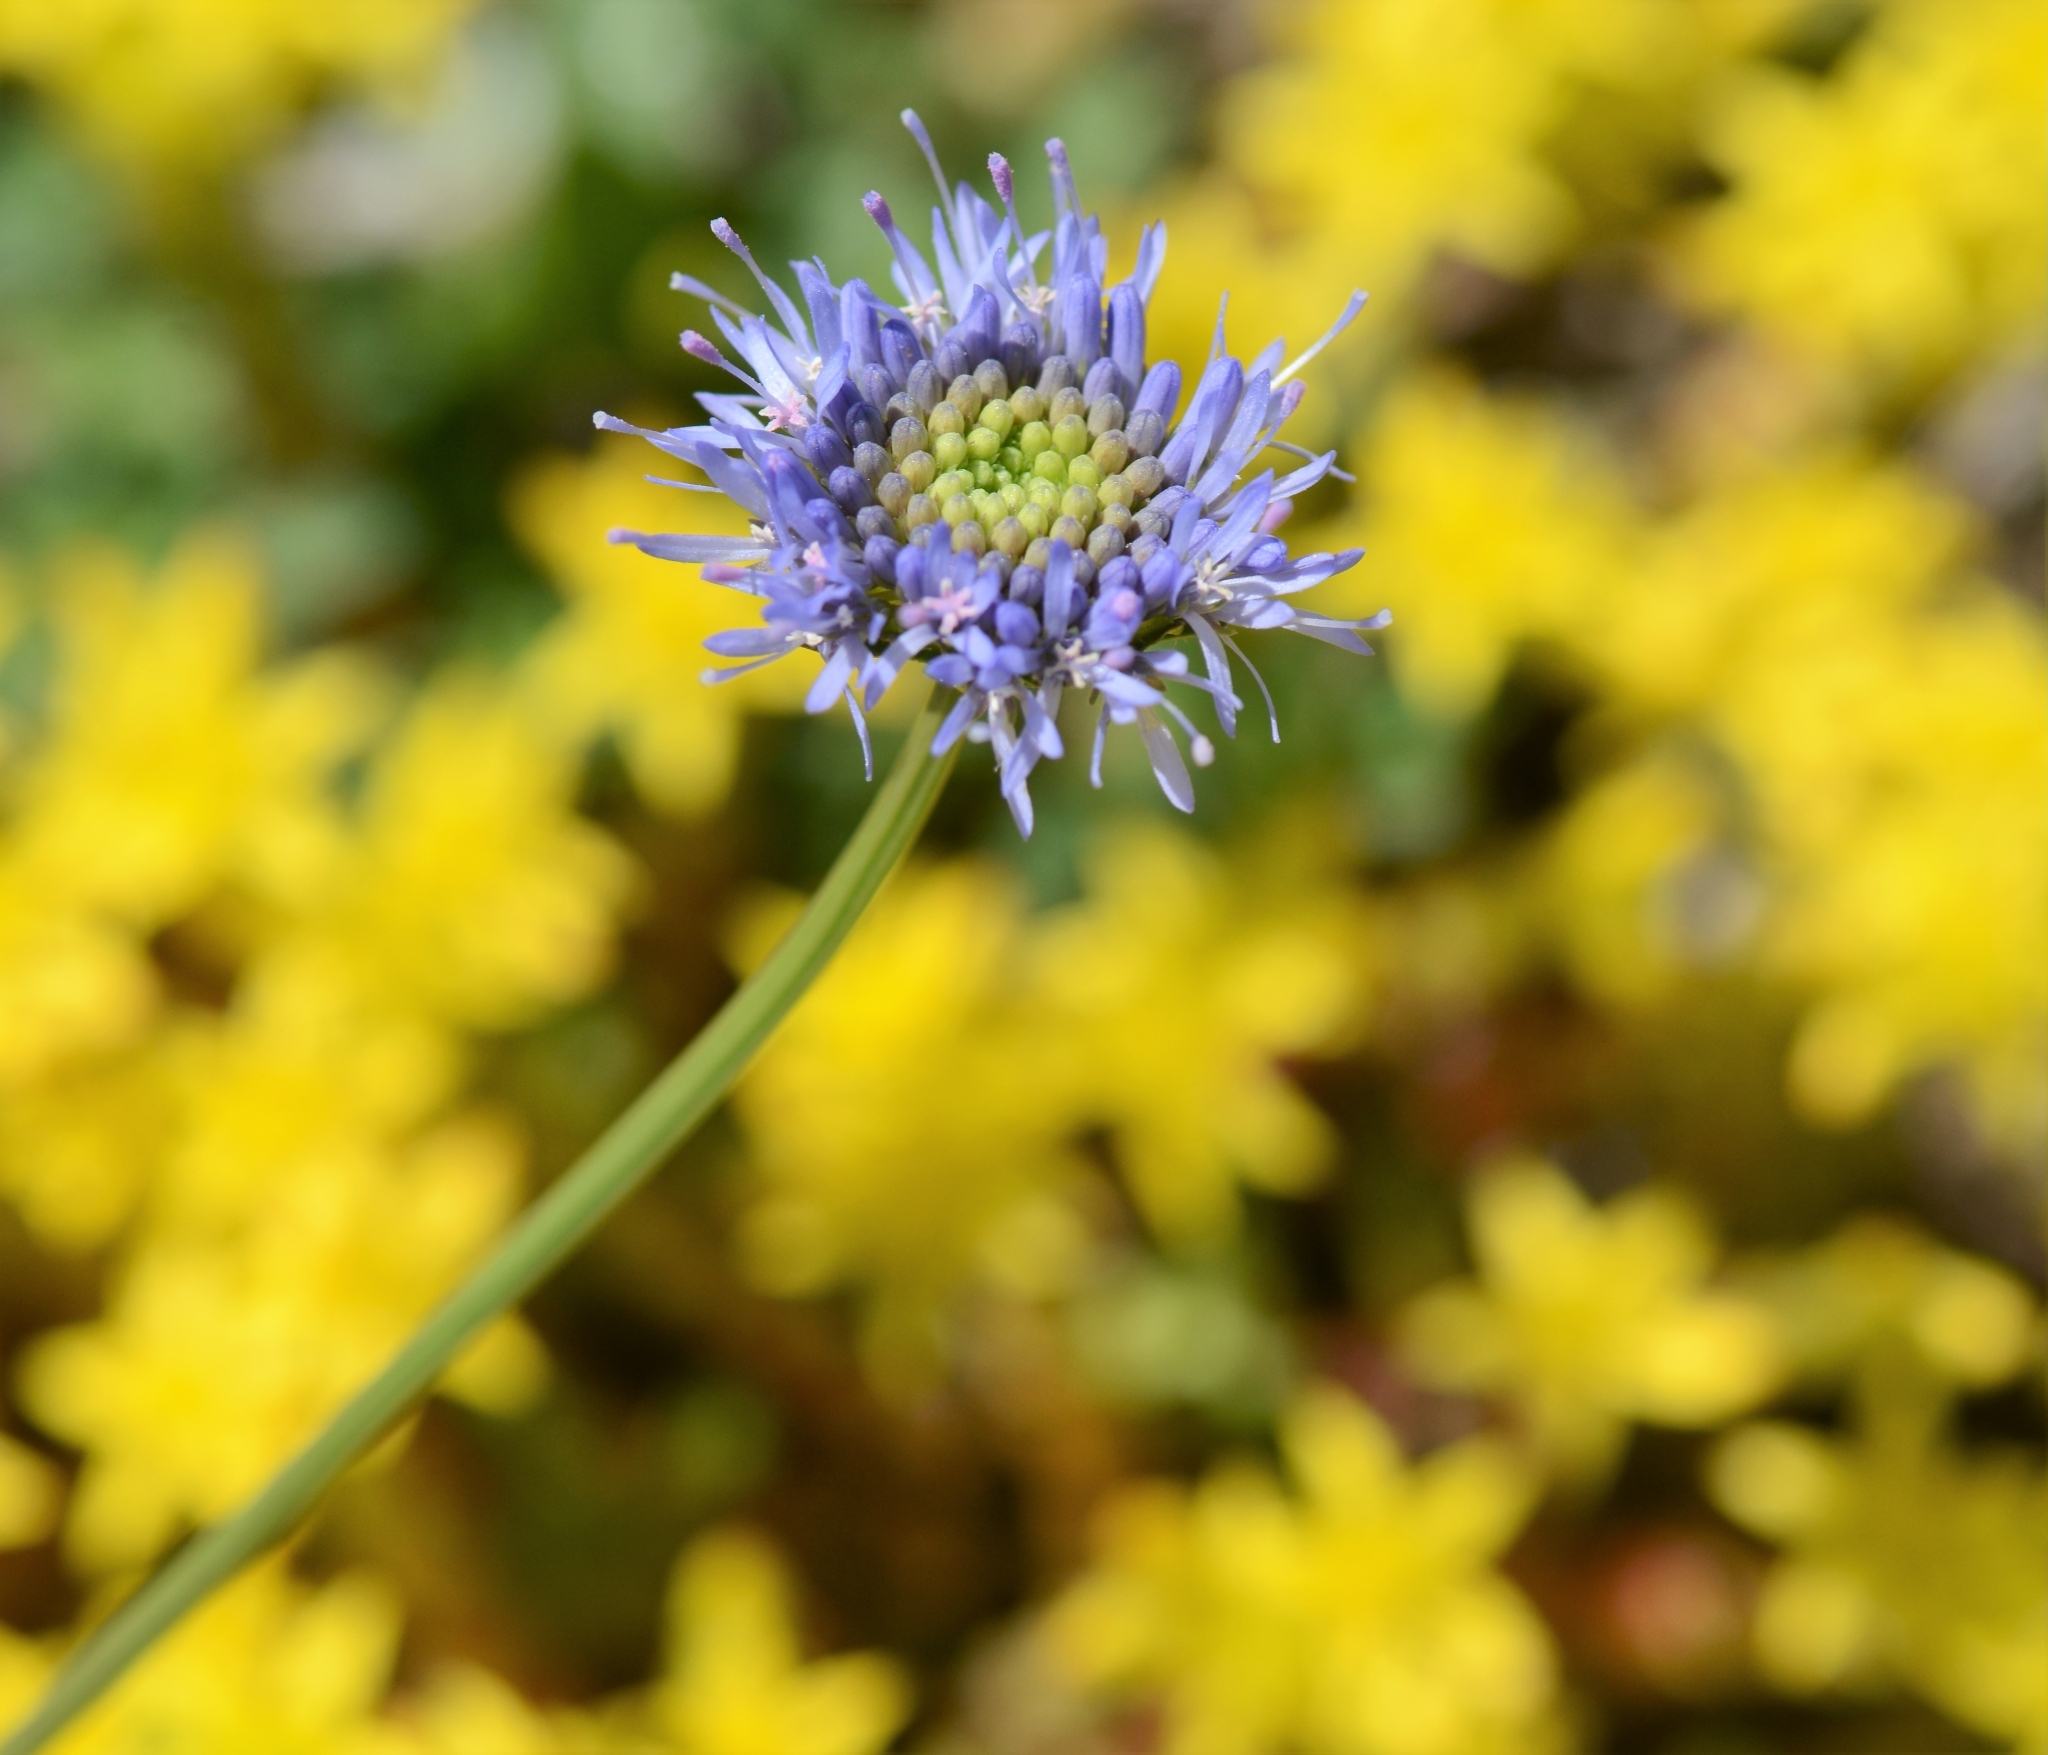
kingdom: Plantae
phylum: Tracheophyta
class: Magnoliopsida
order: Asterales
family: Campanulaceae
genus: Jasione
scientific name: Jasione montana
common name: Sheep's-bit
